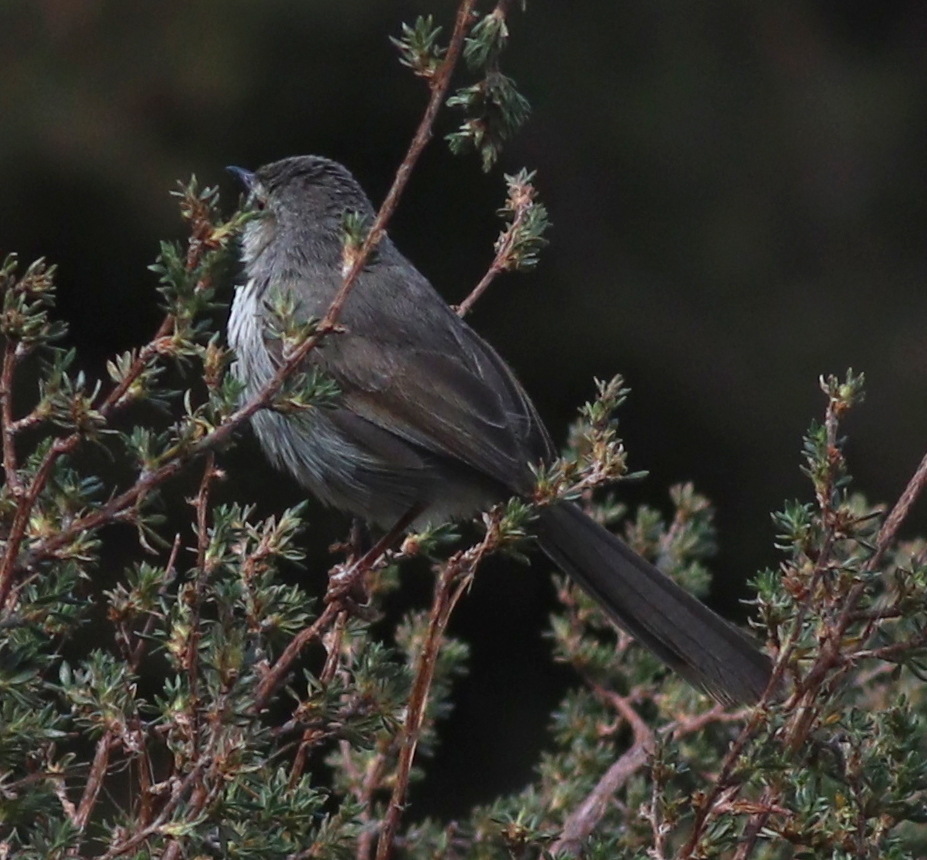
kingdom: Animalia
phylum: Chordata
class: Aves
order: Passeriformes
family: Cisticolidae
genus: Prinia
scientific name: Prinia maculosa
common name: Karoo prinia
